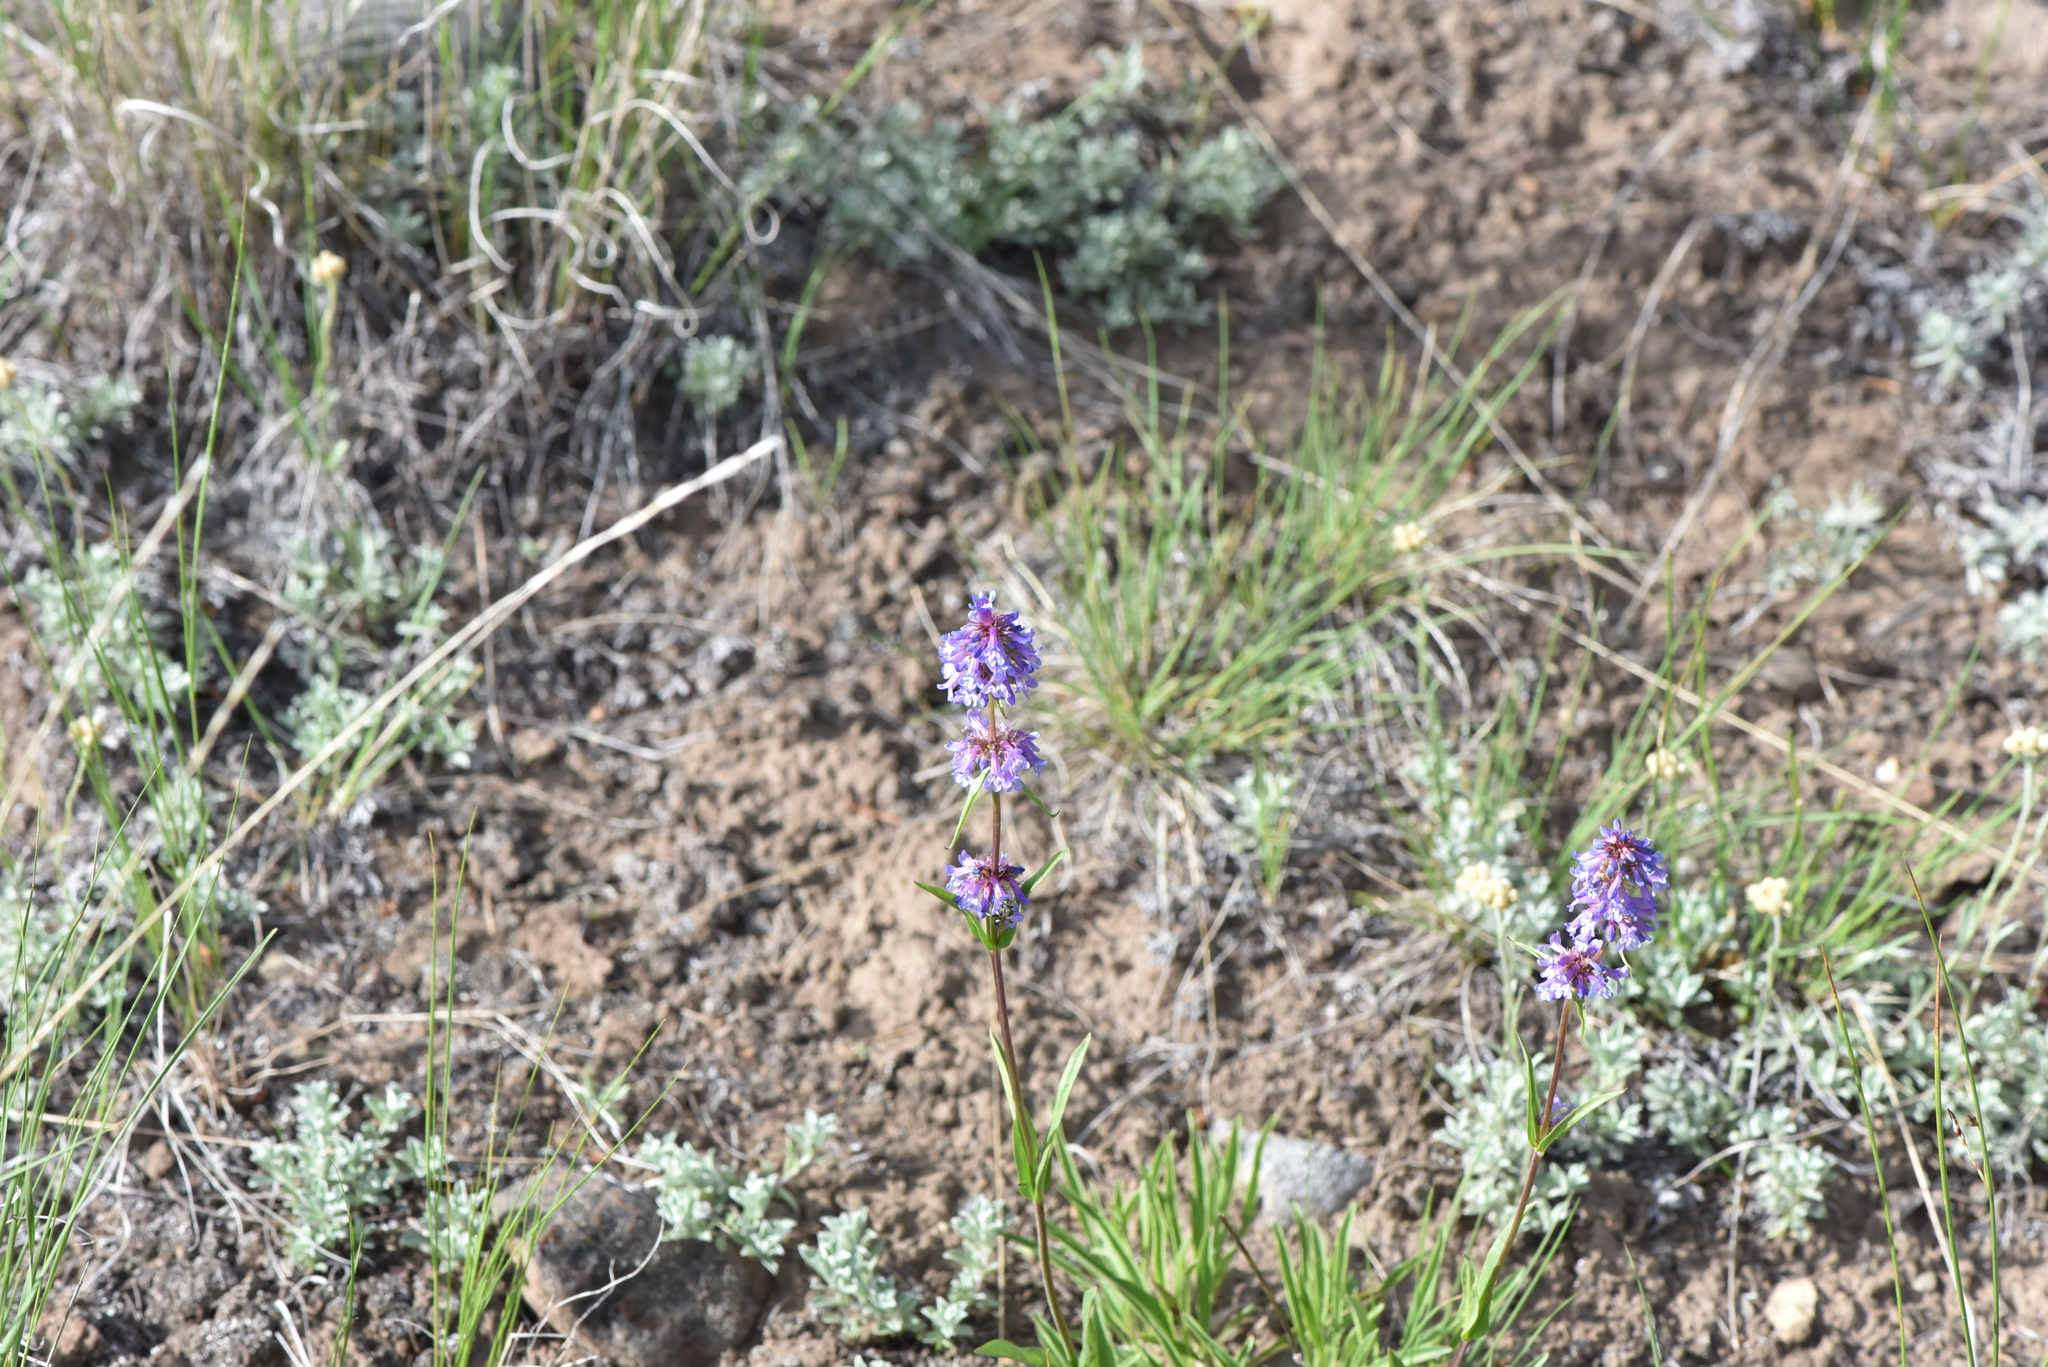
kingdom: Plantae
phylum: Tracheophyta
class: Magnoliopsida
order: Lamiales
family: Plantaginaceae
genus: Penstemon
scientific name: Penstemon procerus
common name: Small-flower penstemon
